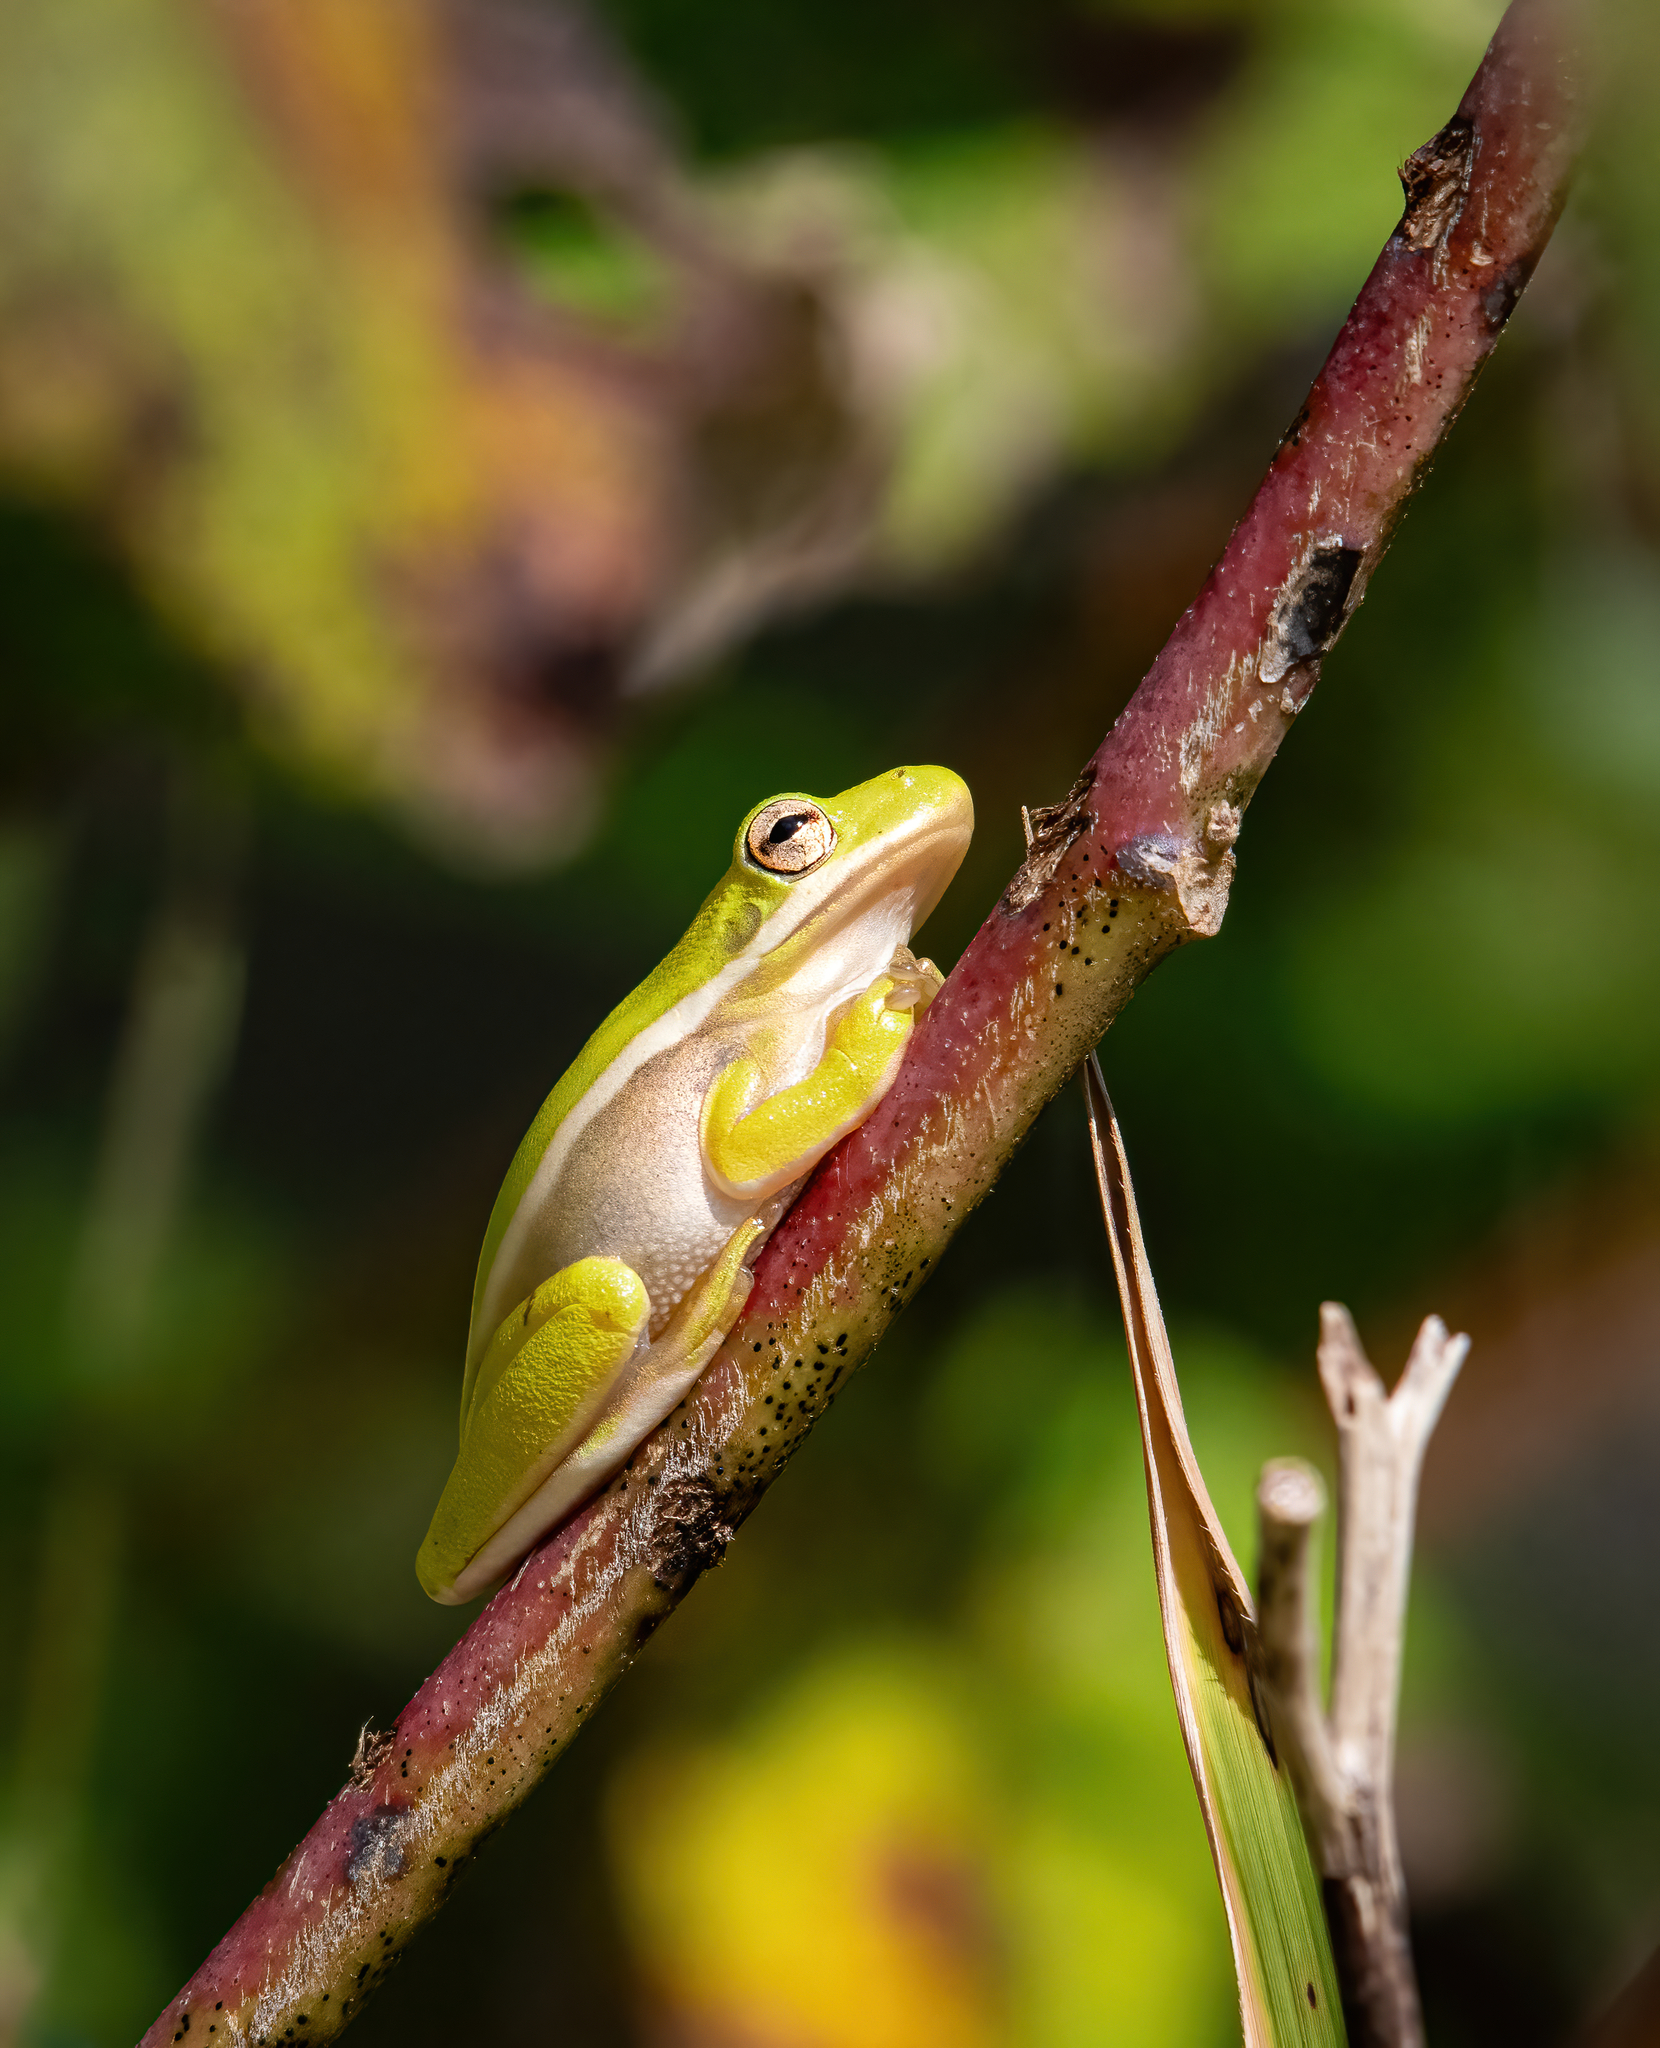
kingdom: Animalia
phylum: Chordata
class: Amphibia
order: Anura
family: Hylidae
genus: Dryophytes
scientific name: Dryophytes cinereus
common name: Green treefrog
